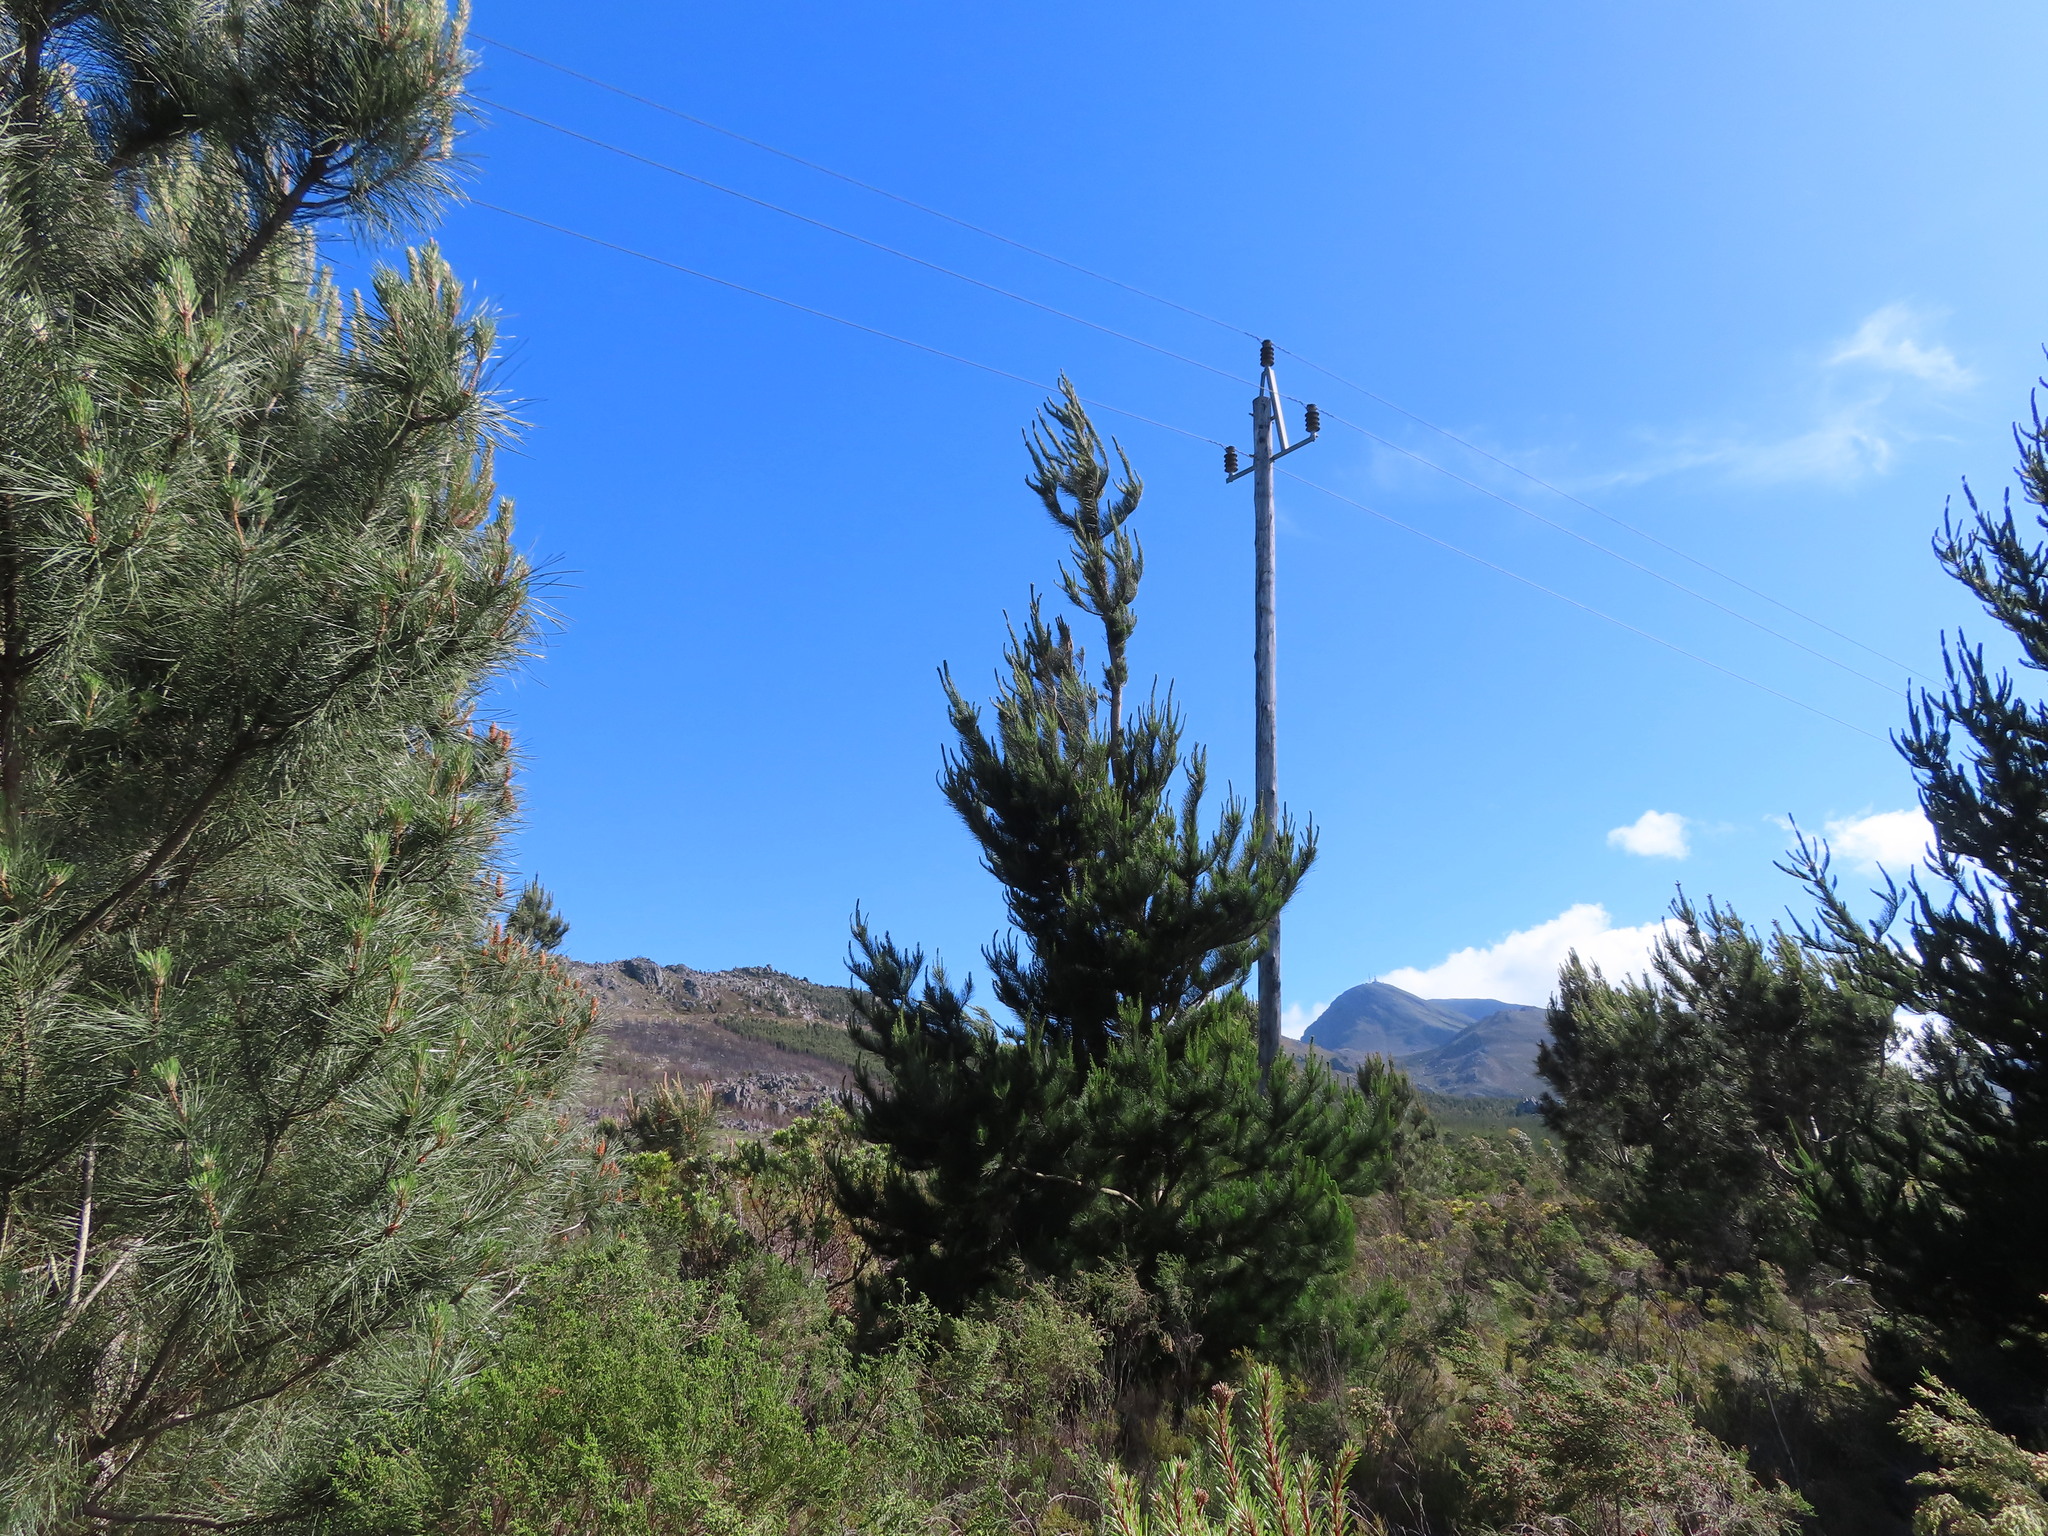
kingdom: Plantae
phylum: Tracheophyta
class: Pinopsida
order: Pinales
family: Pinaceae
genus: Pinus
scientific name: Pinus radiata
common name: Monterey pine
